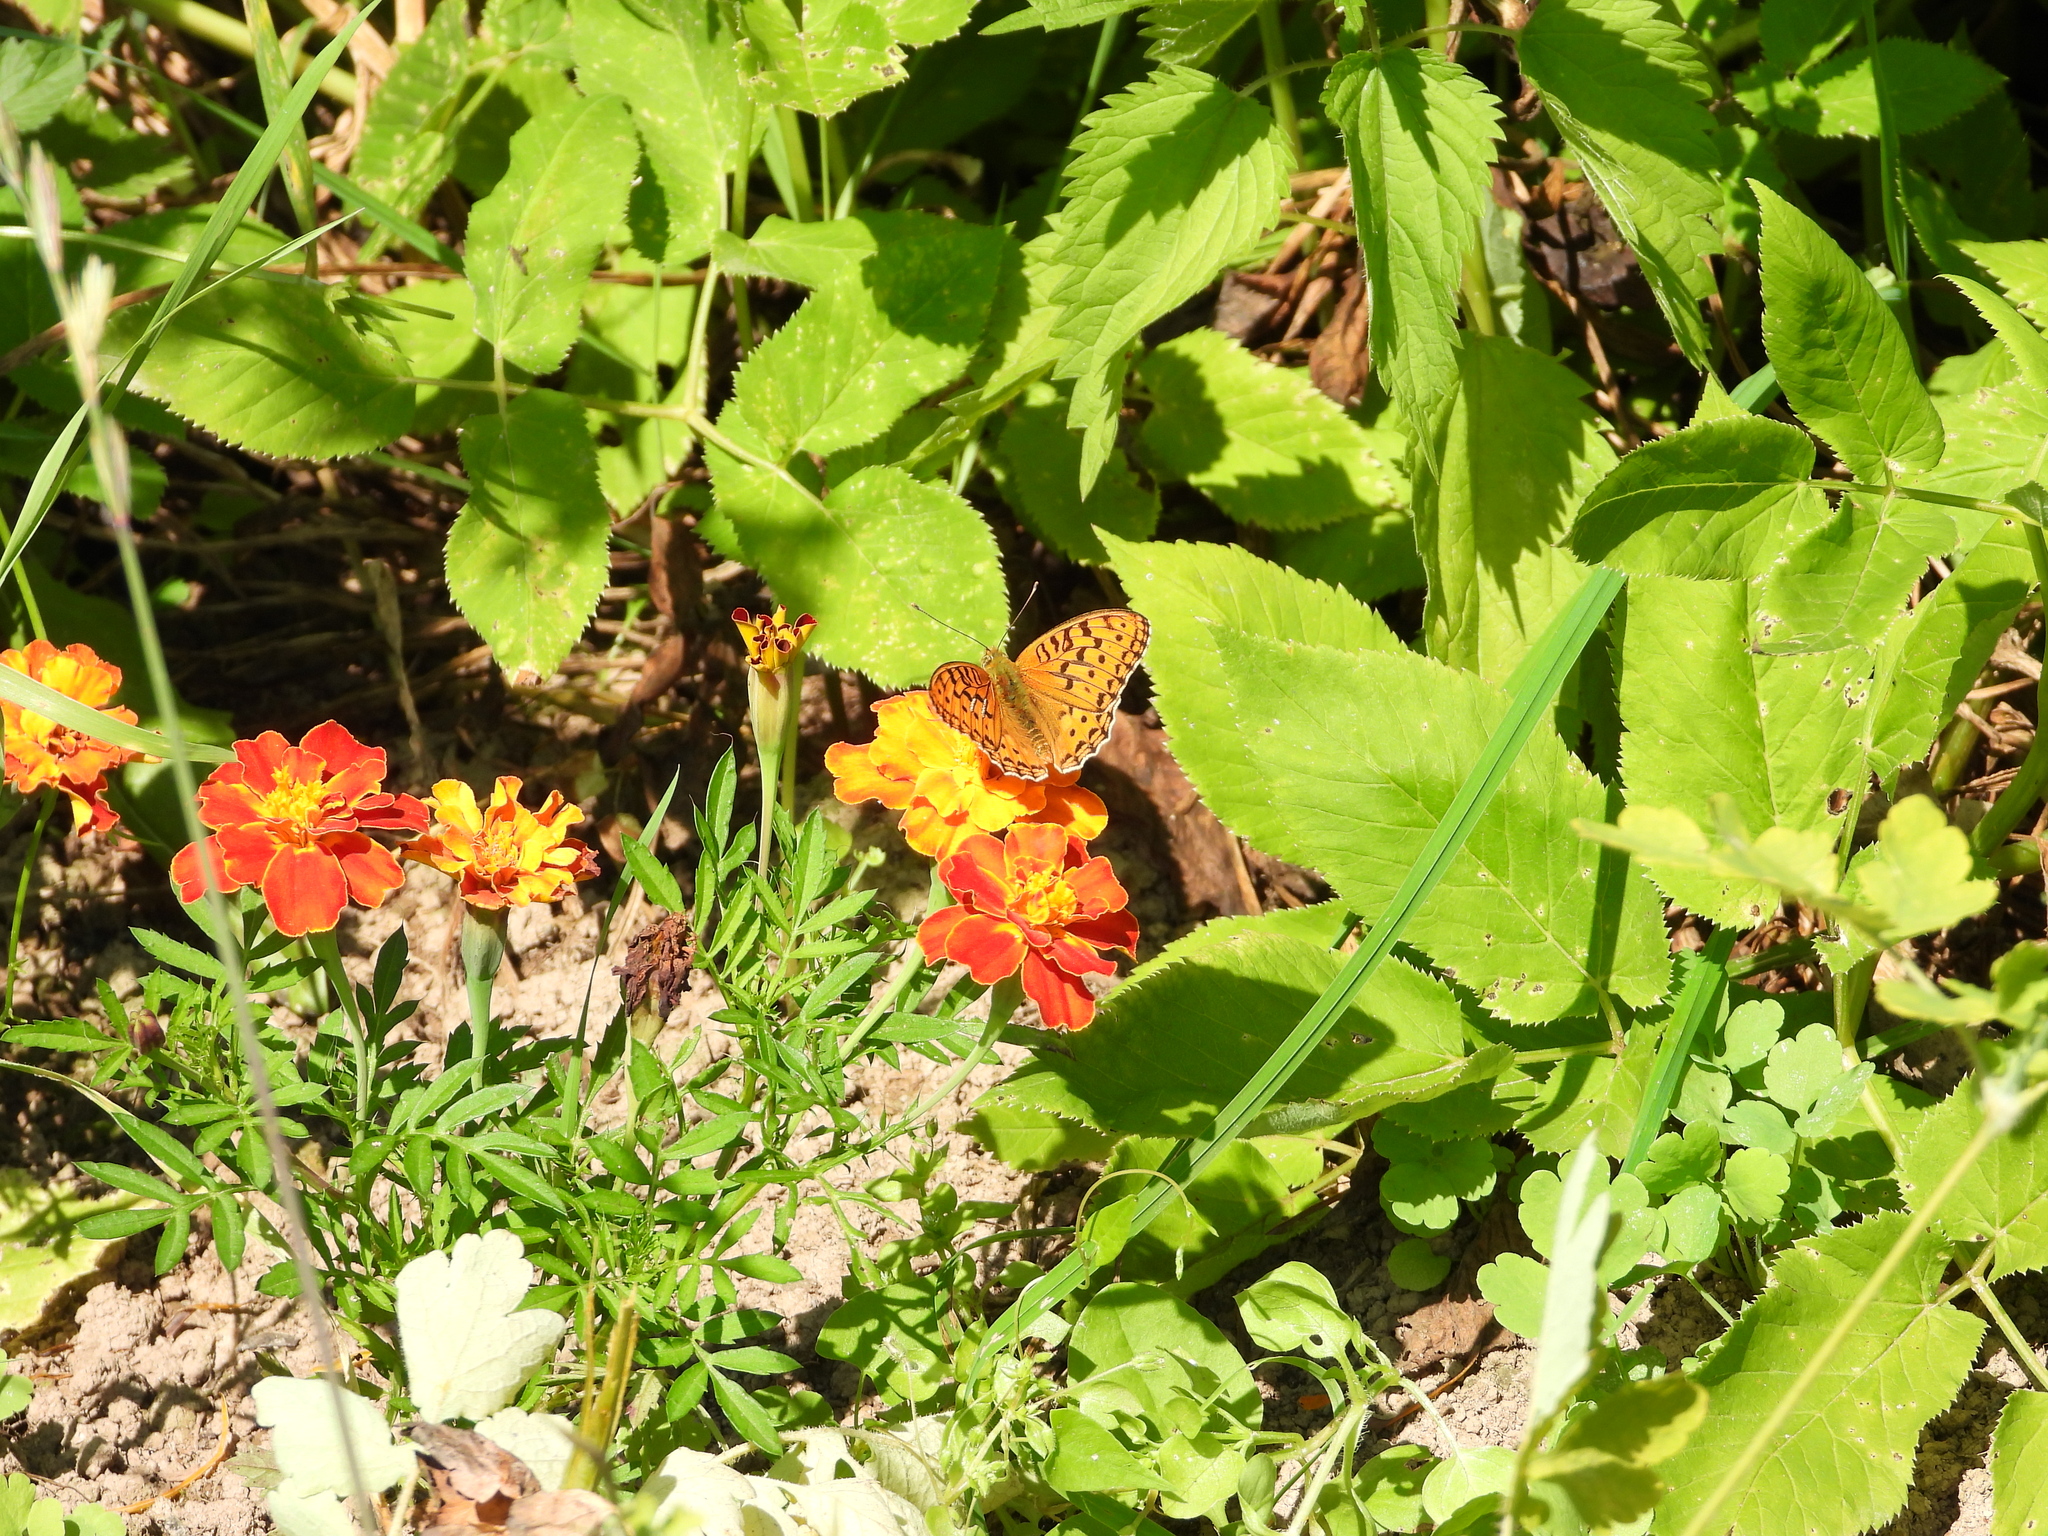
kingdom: Animalia
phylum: Arthropoda
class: Insecta
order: Lepidoptera
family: Nymphalidae
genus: Fabriciana
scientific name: Fabriciana adippe
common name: High brown fritillary
